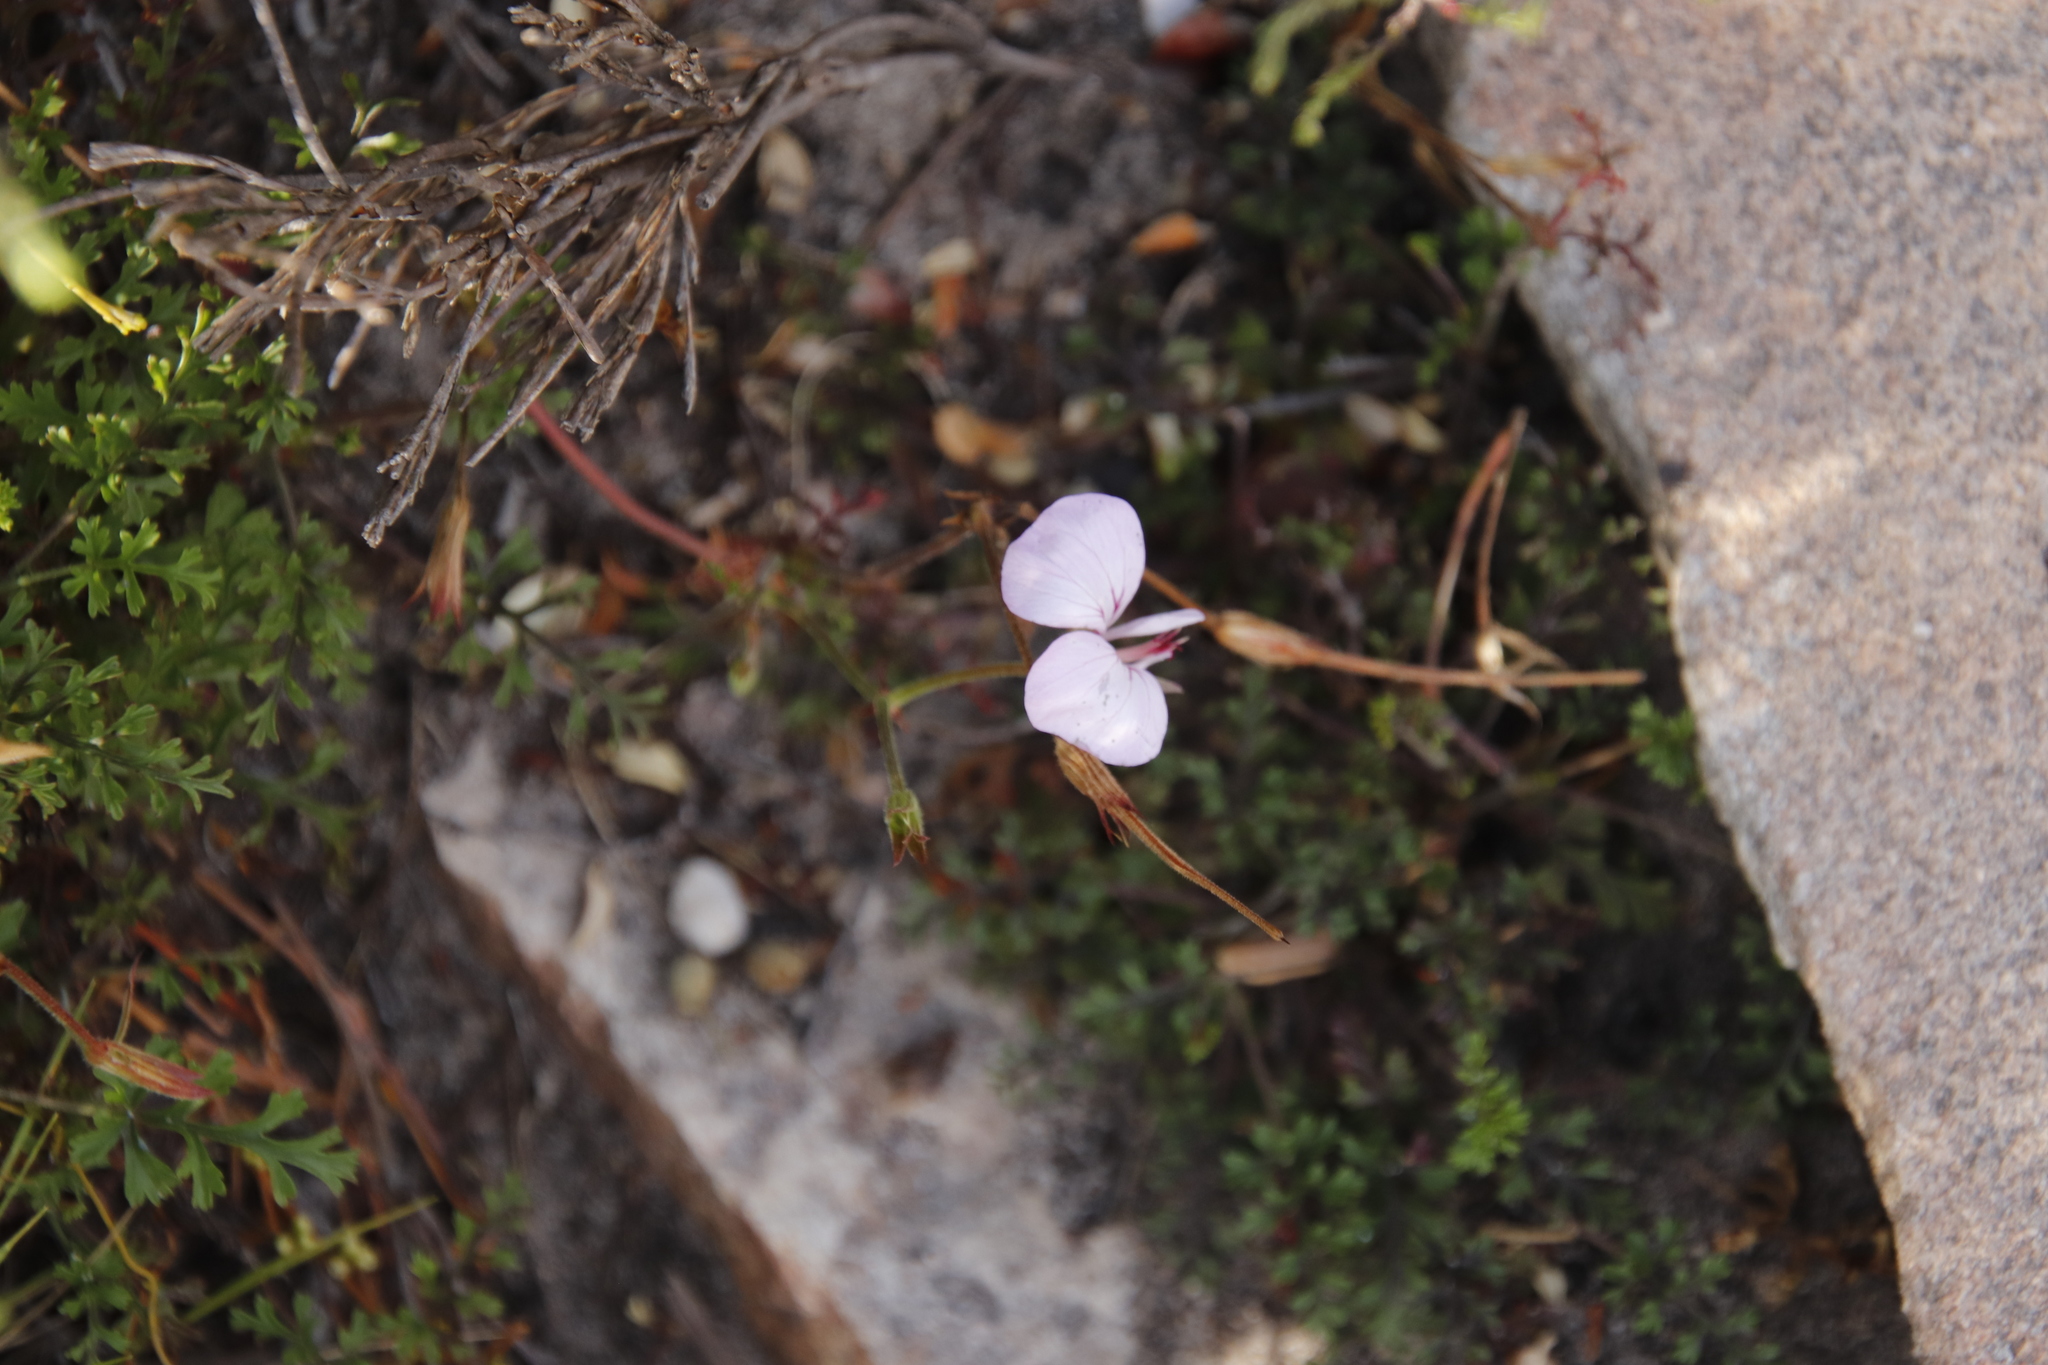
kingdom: Plantae
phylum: Tracheophyta
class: Magnoliopsida
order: Geraniales
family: Geraniaceae
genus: Pelargonium
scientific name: Pelargonium longicaule
